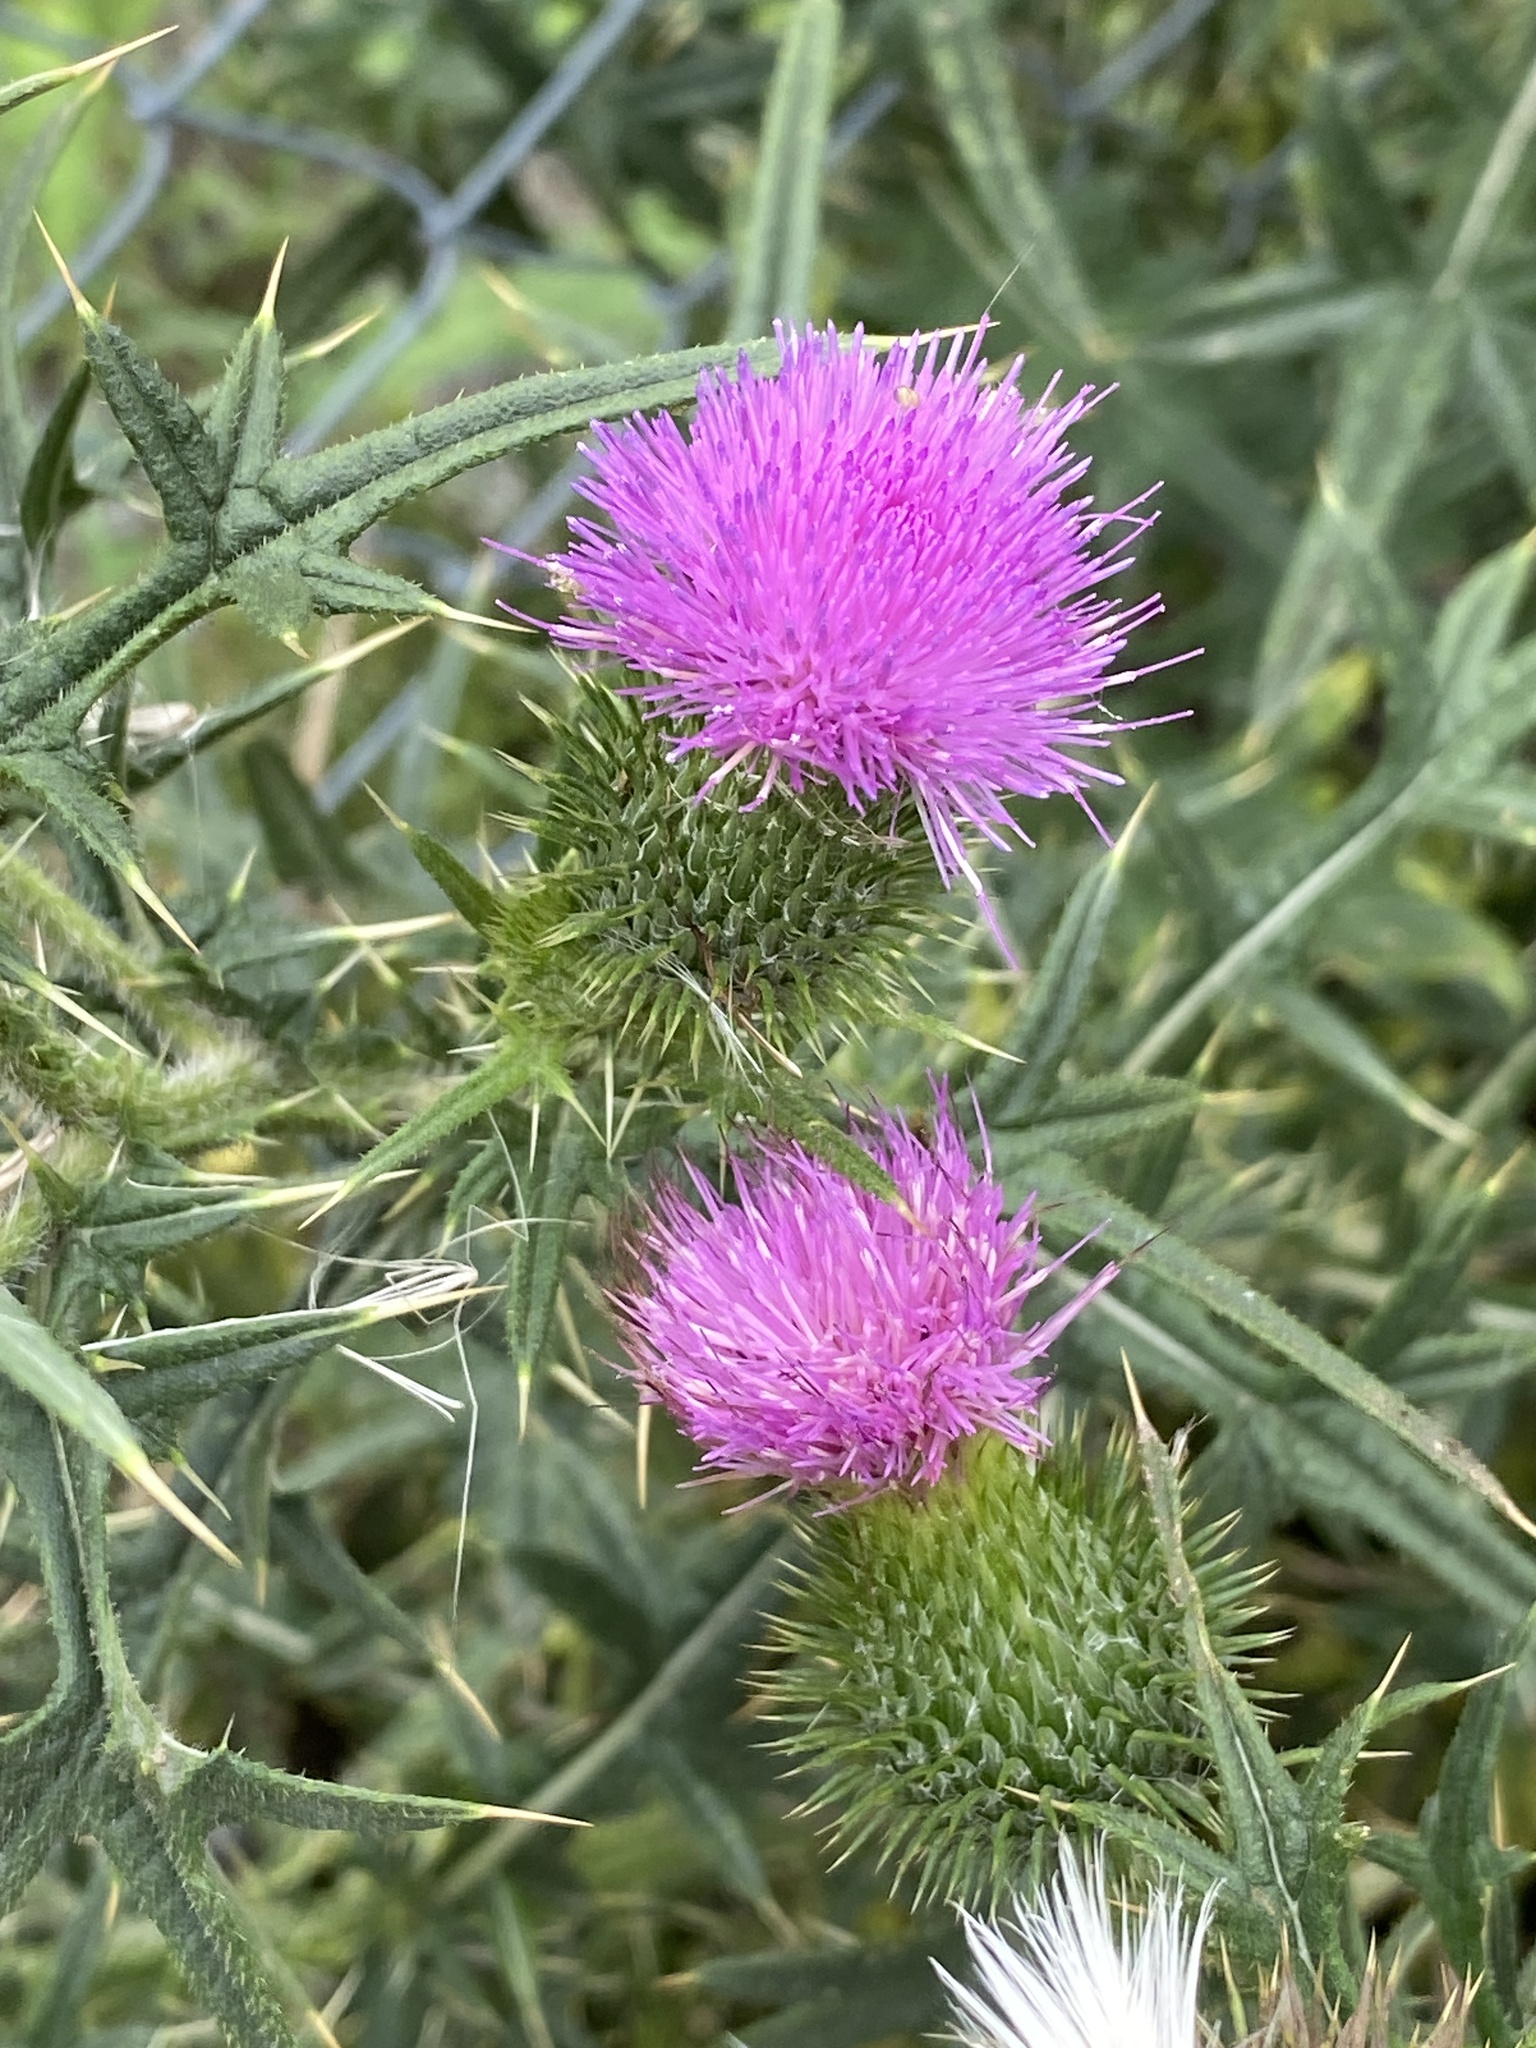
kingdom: Plantae
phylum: Tracheophyta
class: Magnoliopsida
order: Asterales
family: Asteraceae
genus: Cirsium
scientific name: Cirsium vulgare
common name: Bull thistle
